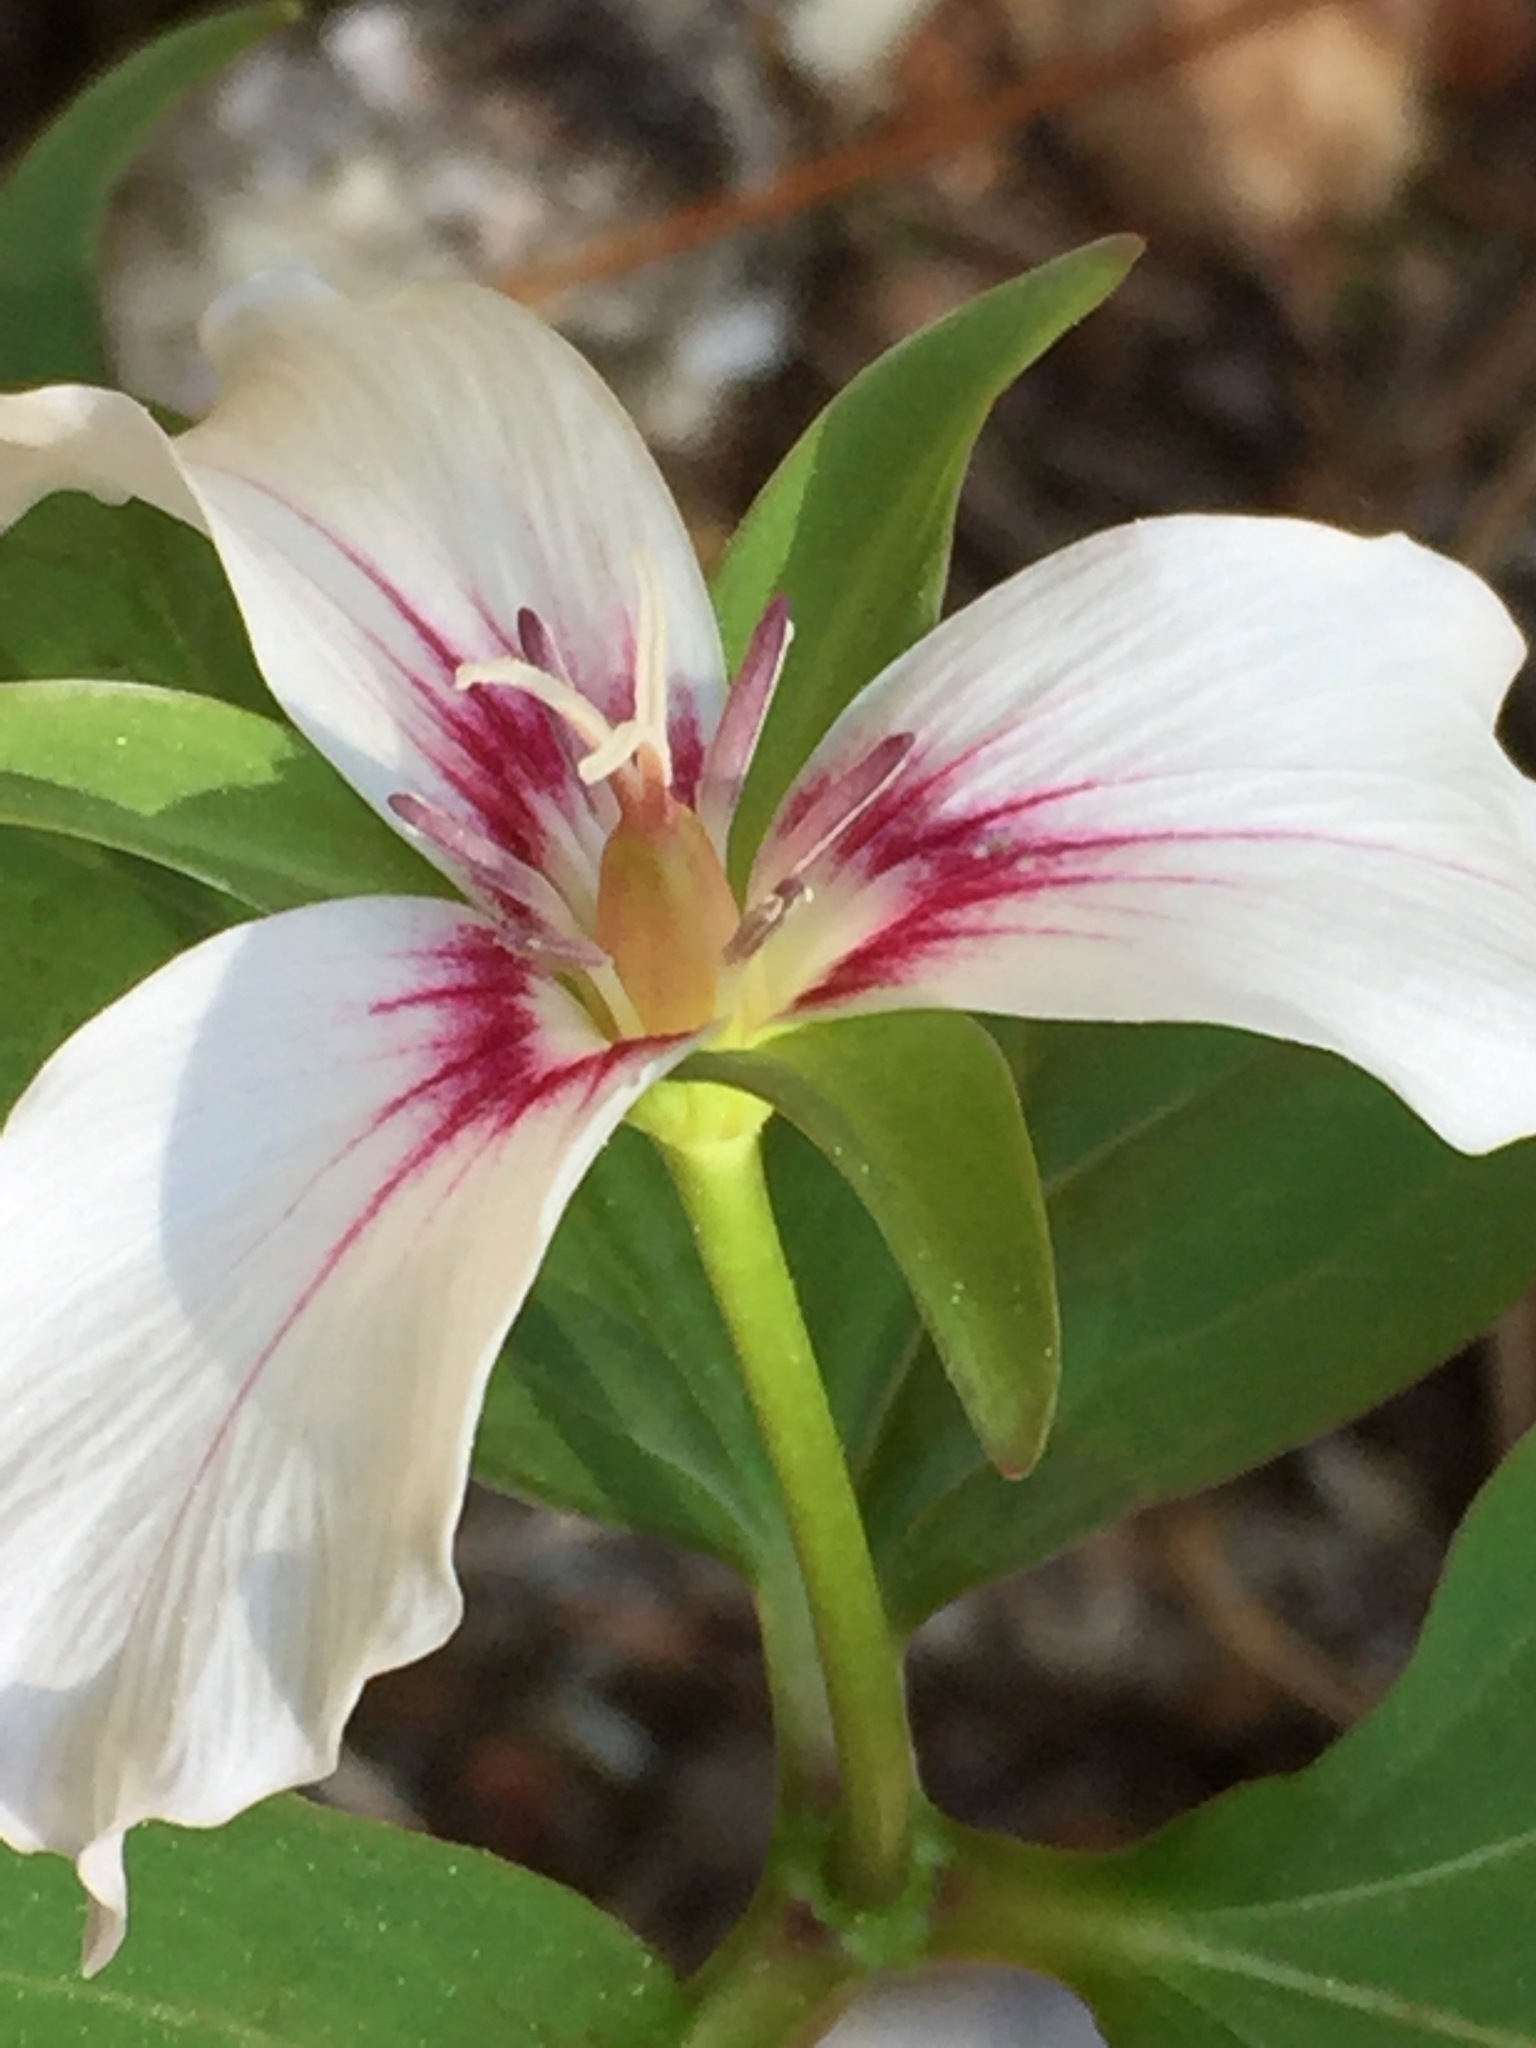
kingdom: Plantae
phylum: Tracheophyta
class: Liliopsida
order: Liliales
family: Melanthiaceae
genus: Trillium
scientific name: Trillium undulatum
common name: Paint trillium
